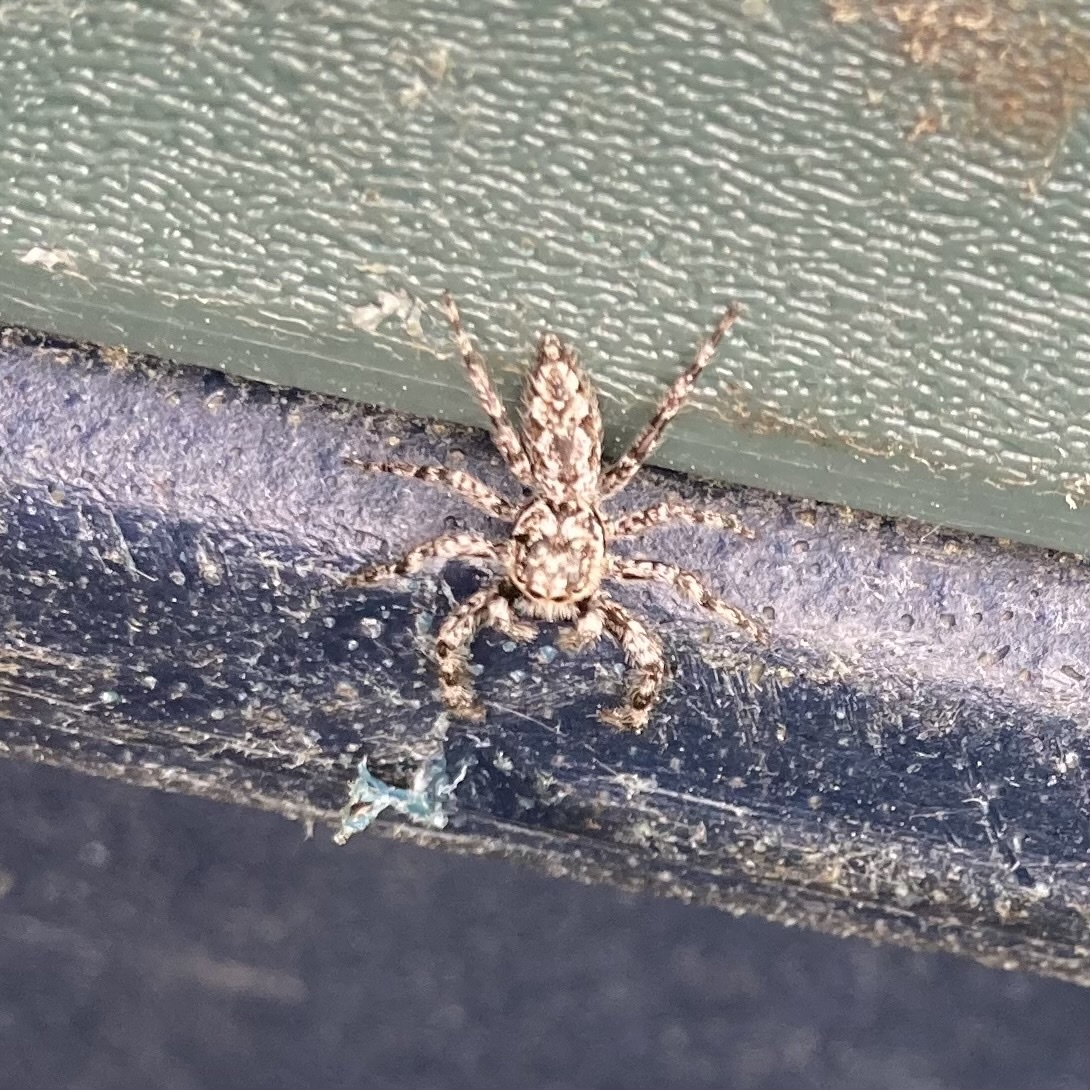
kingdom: Animalia
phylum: Arthropoda
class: Arachnida
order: Araneae
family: Salticidae
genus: Platycryptus
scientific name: Platycryptus undatus
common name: Tan jumping spider
